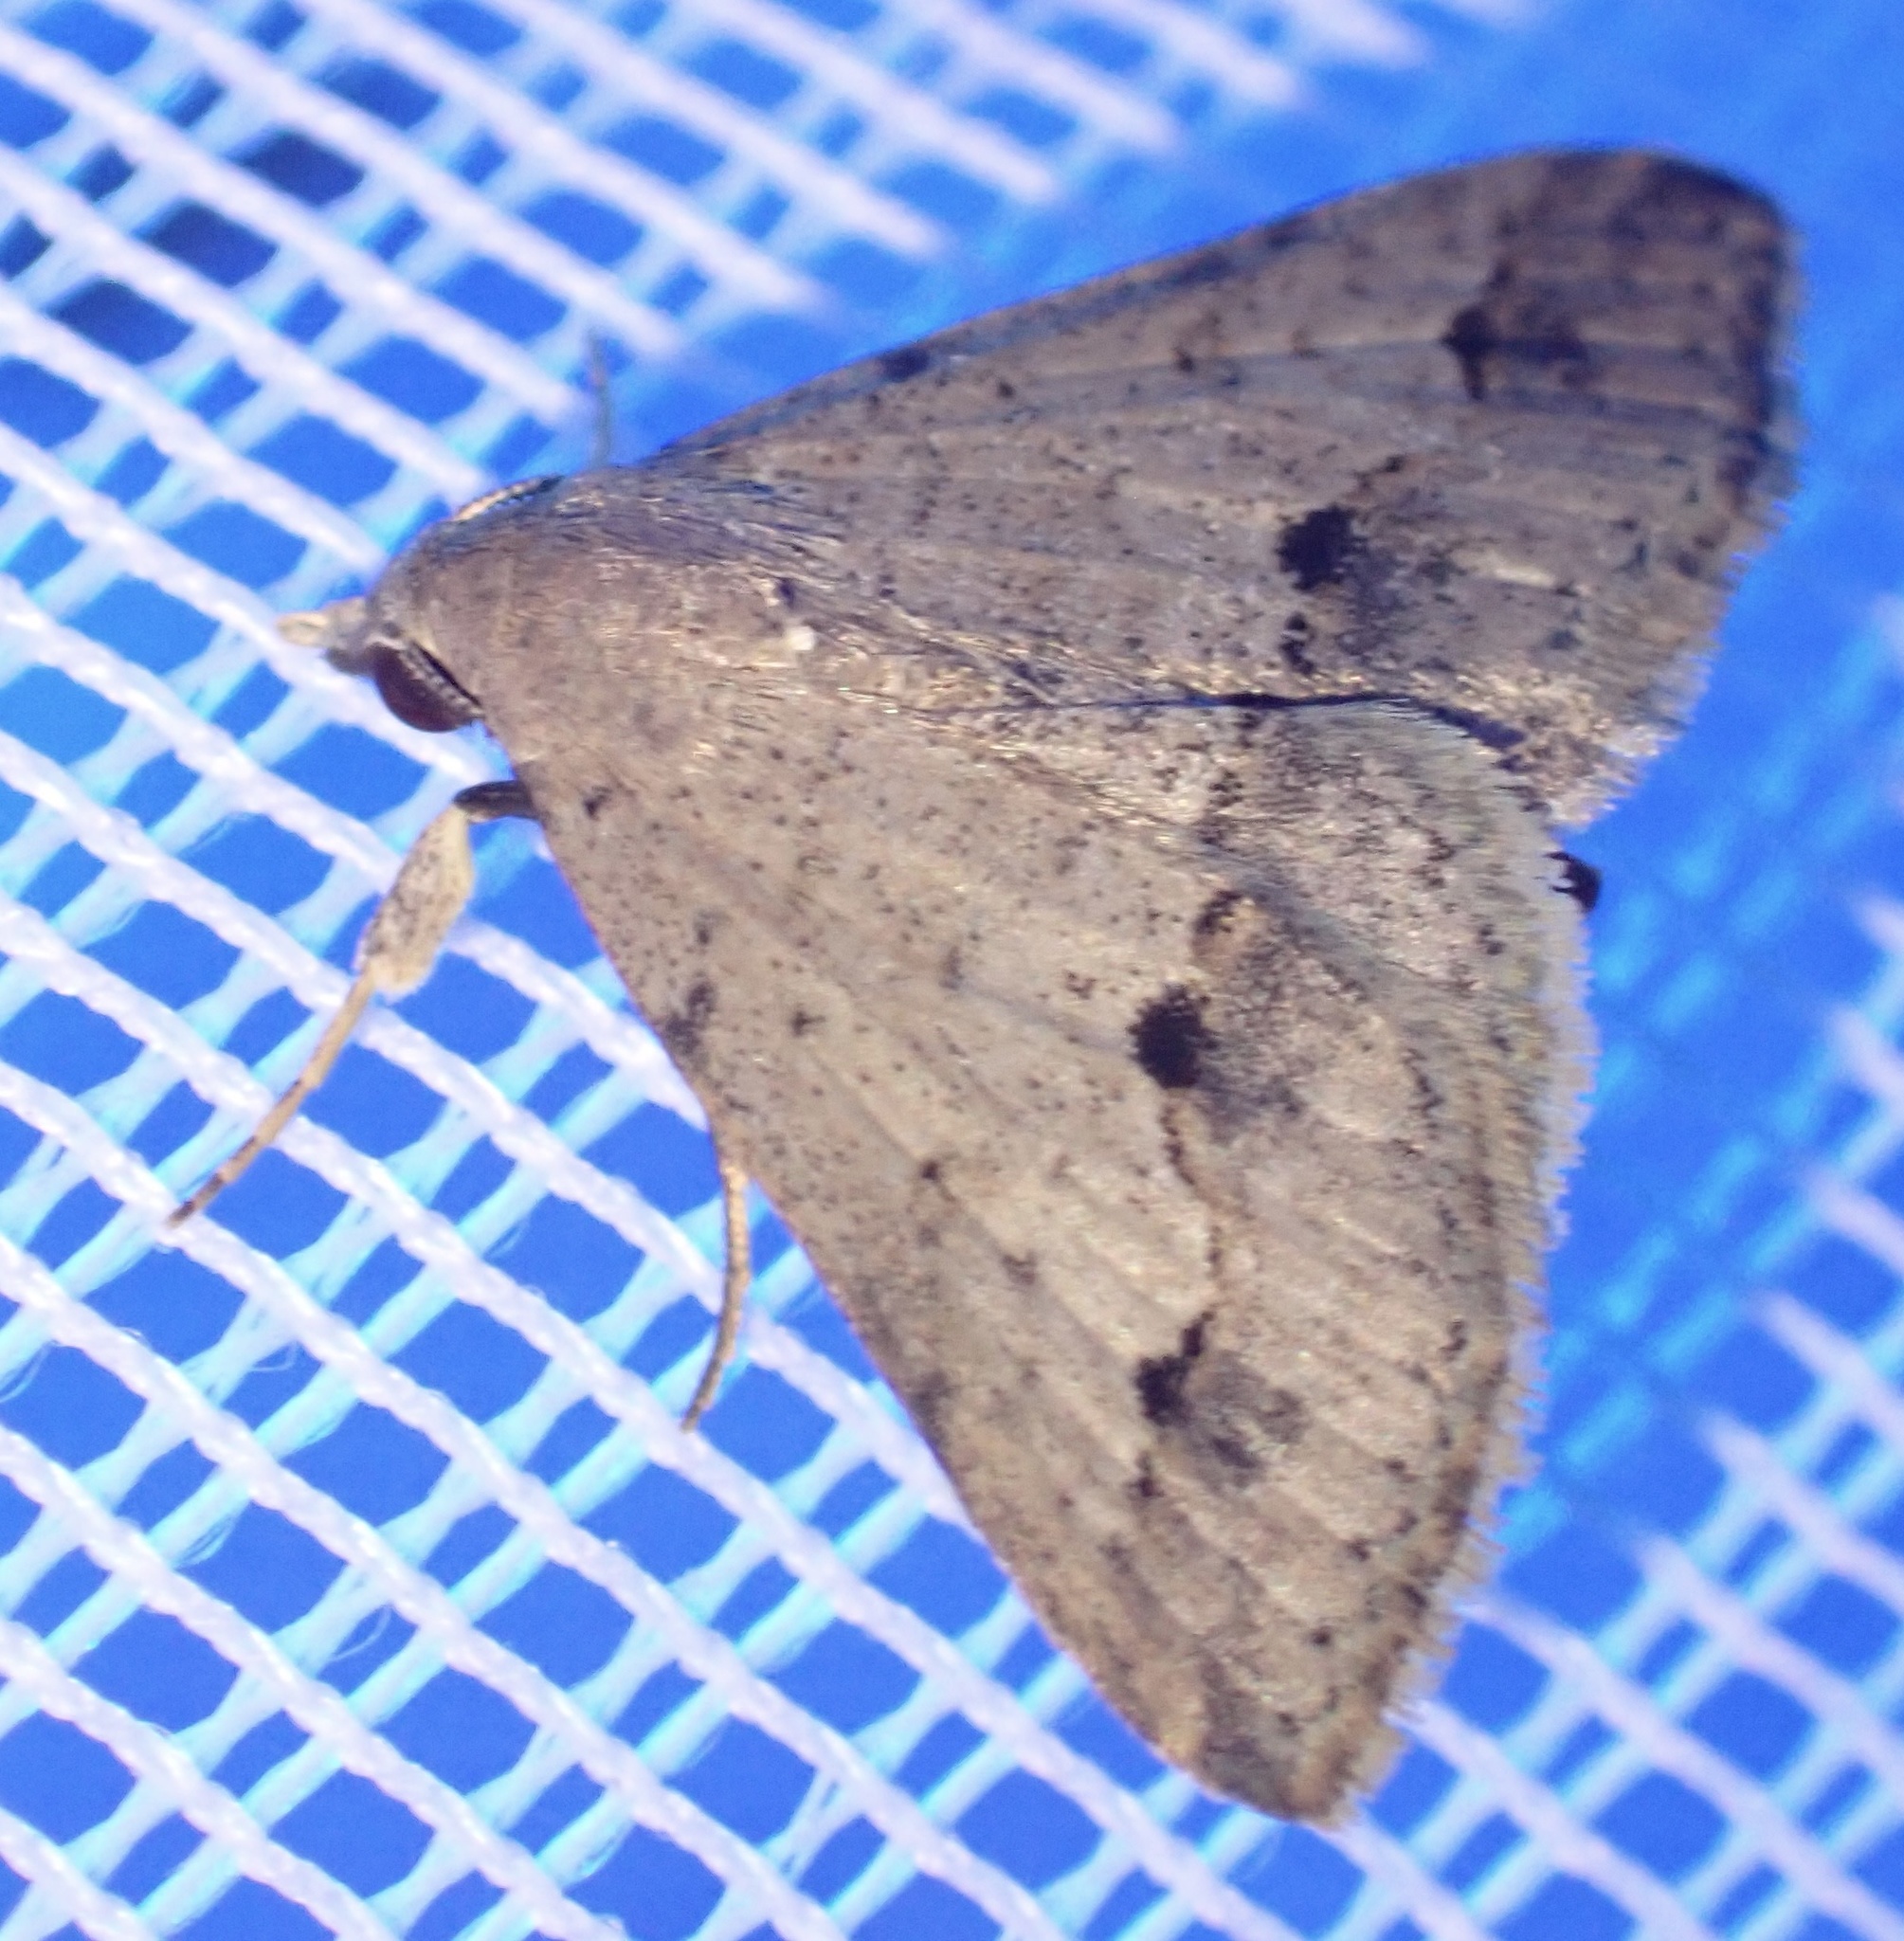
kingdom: Animalia
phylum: Arthropoda
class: Insecta
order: Lepidoptera
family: Erebidae
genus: Gesonia
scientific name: Gesonia obeditalis
